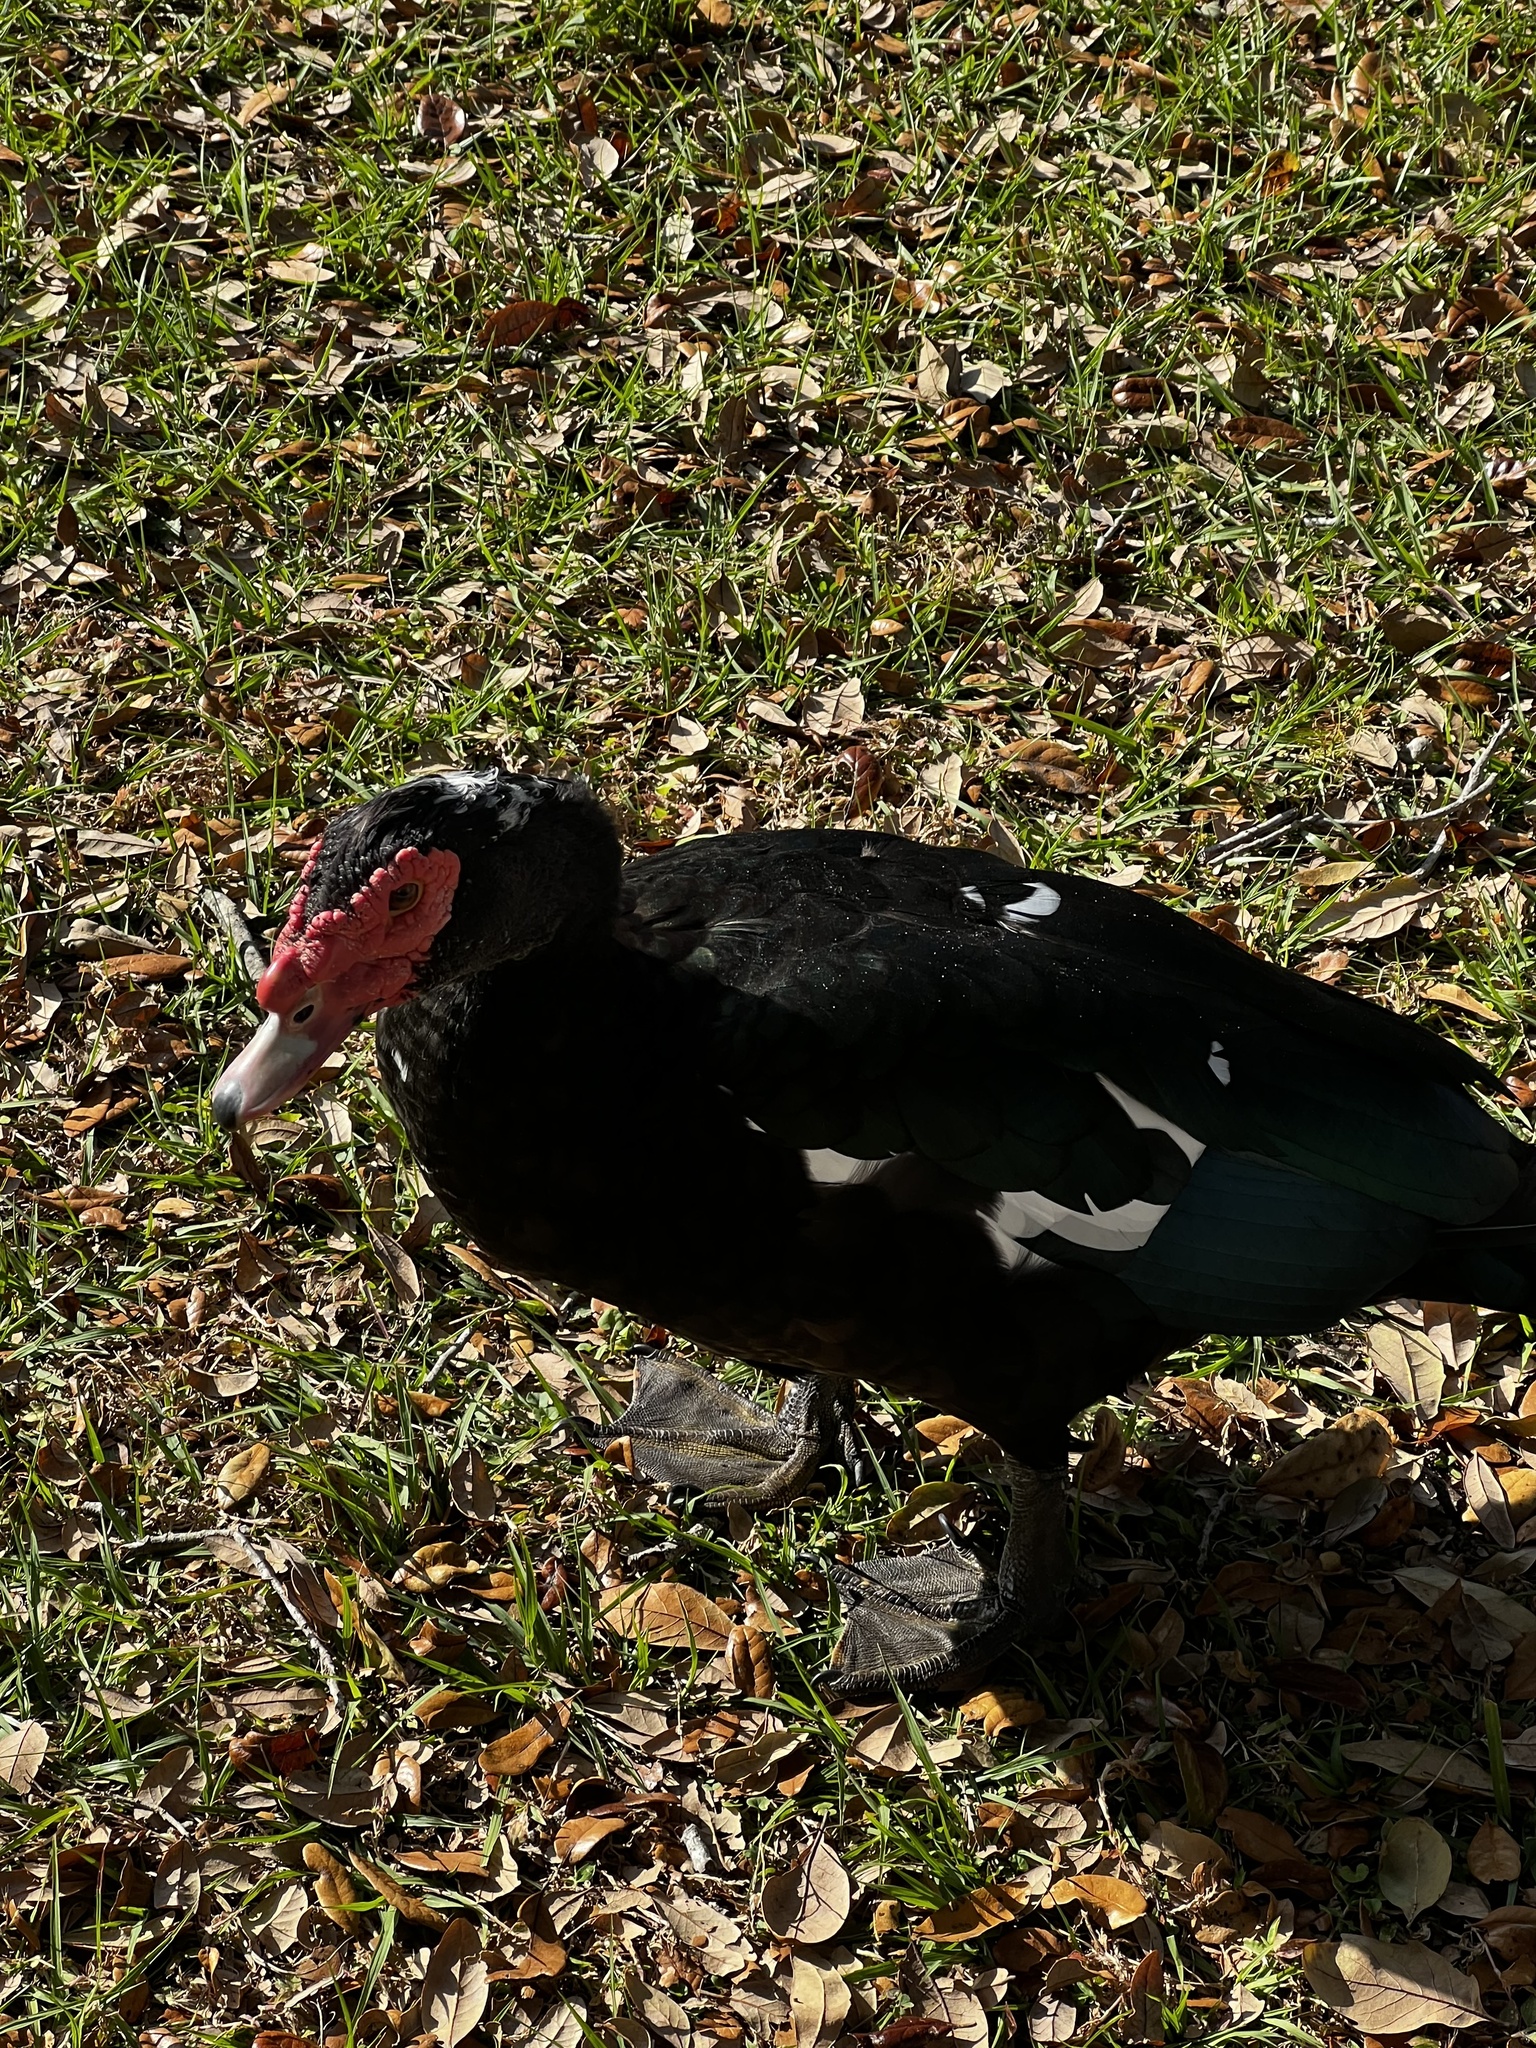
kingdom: Animalia
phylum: Chordata
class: Aves
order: Anseriformes
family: Anatidae
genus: Cairina
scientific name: Cairina moschata
